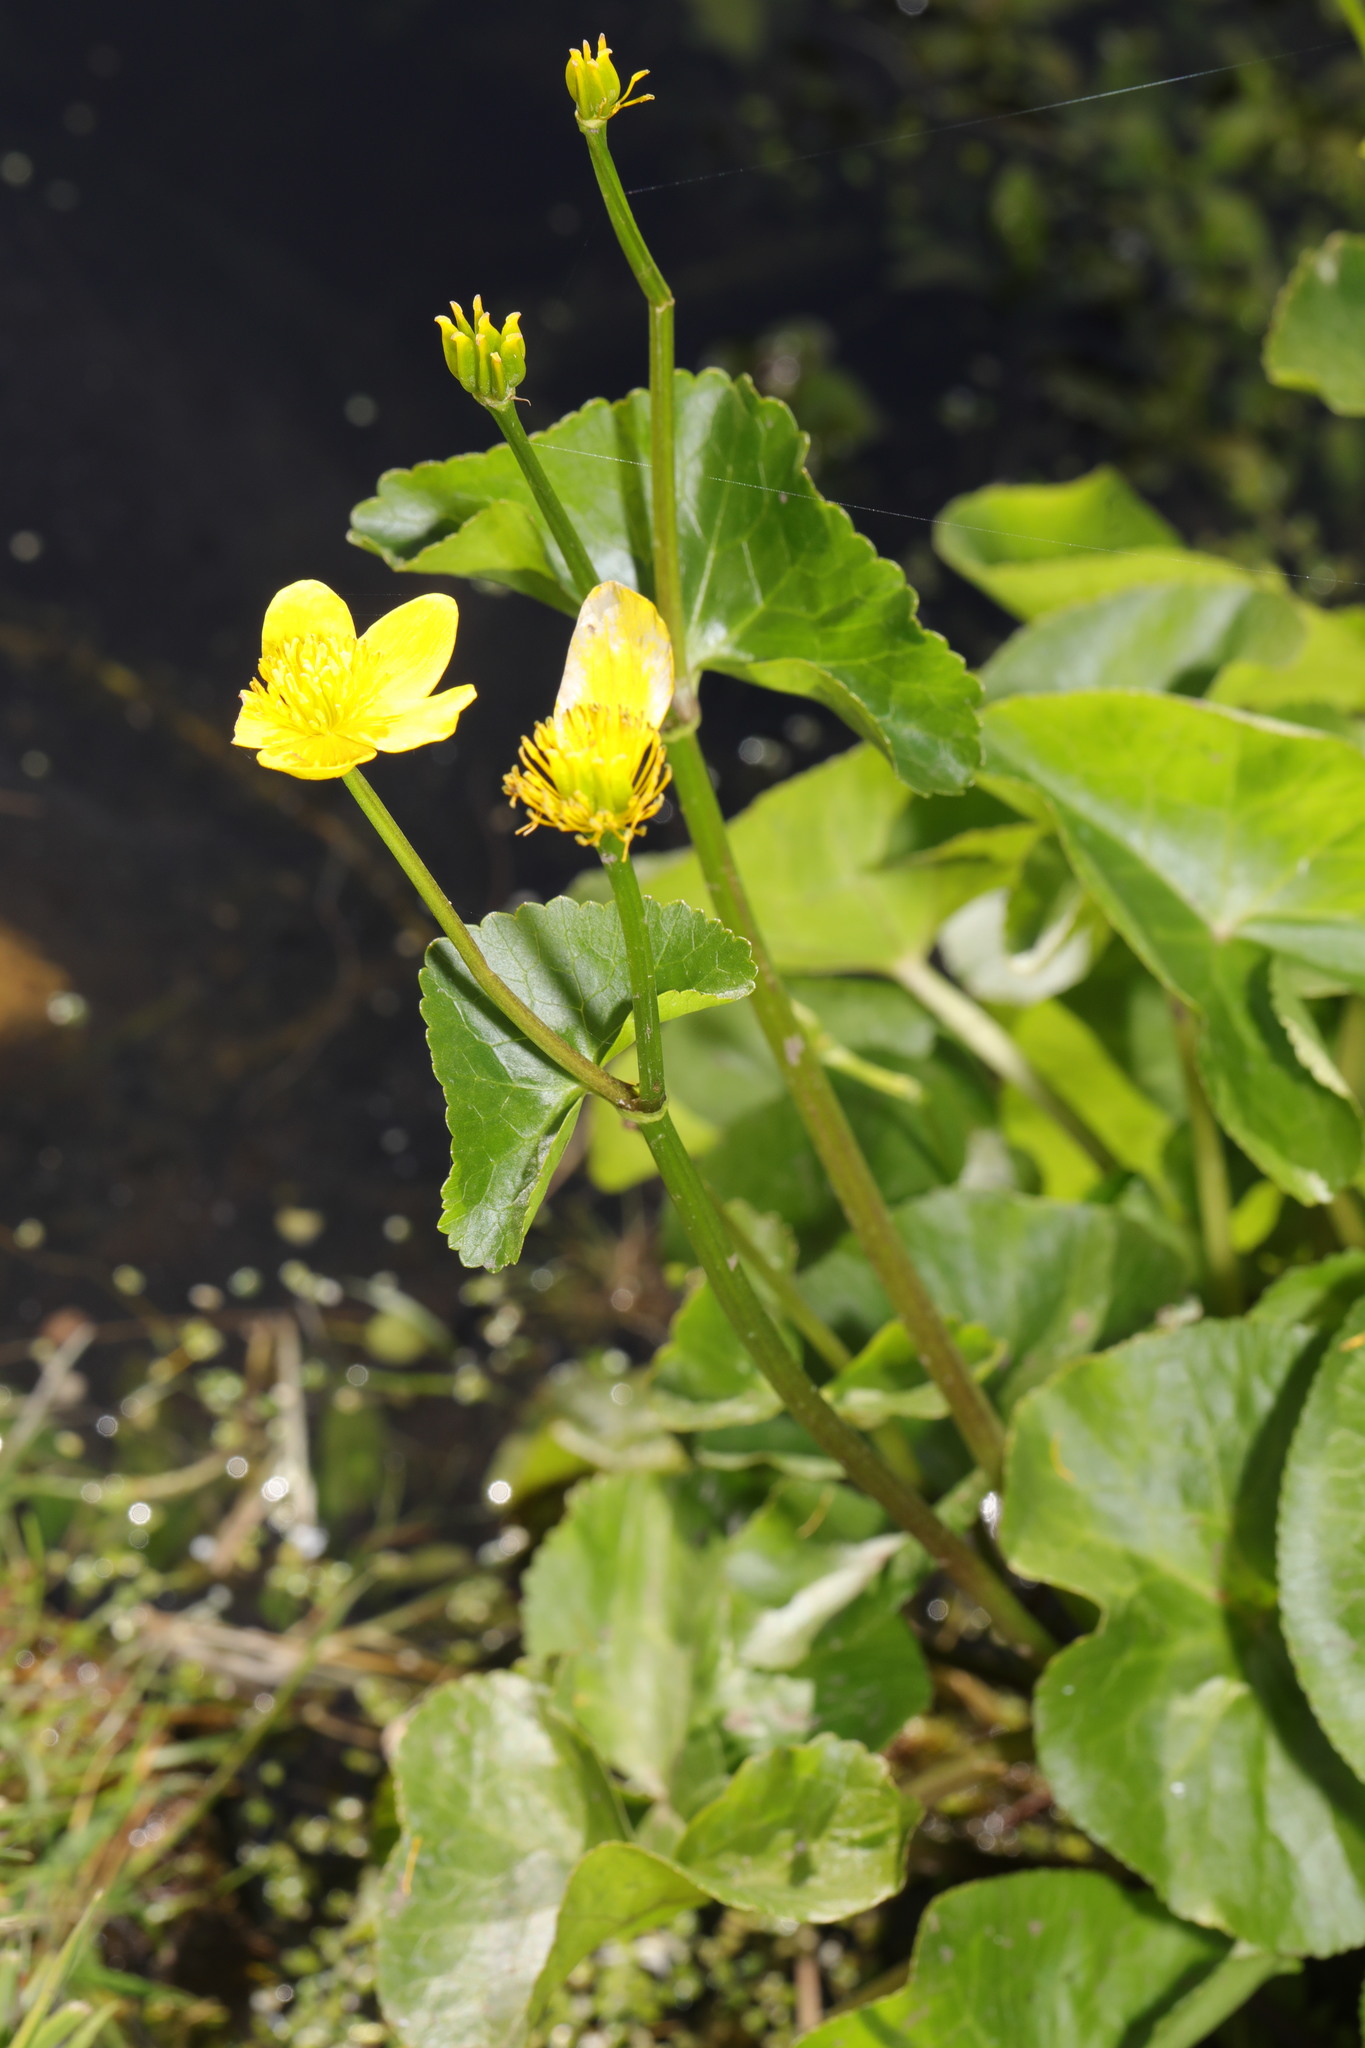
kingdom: Plantae
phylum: Tracheophyta
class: Magnoliopsida
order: Ranunculales
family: Ranunculaceae
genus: Caltha
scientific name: Caltha palustris
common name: Marsh marigold
